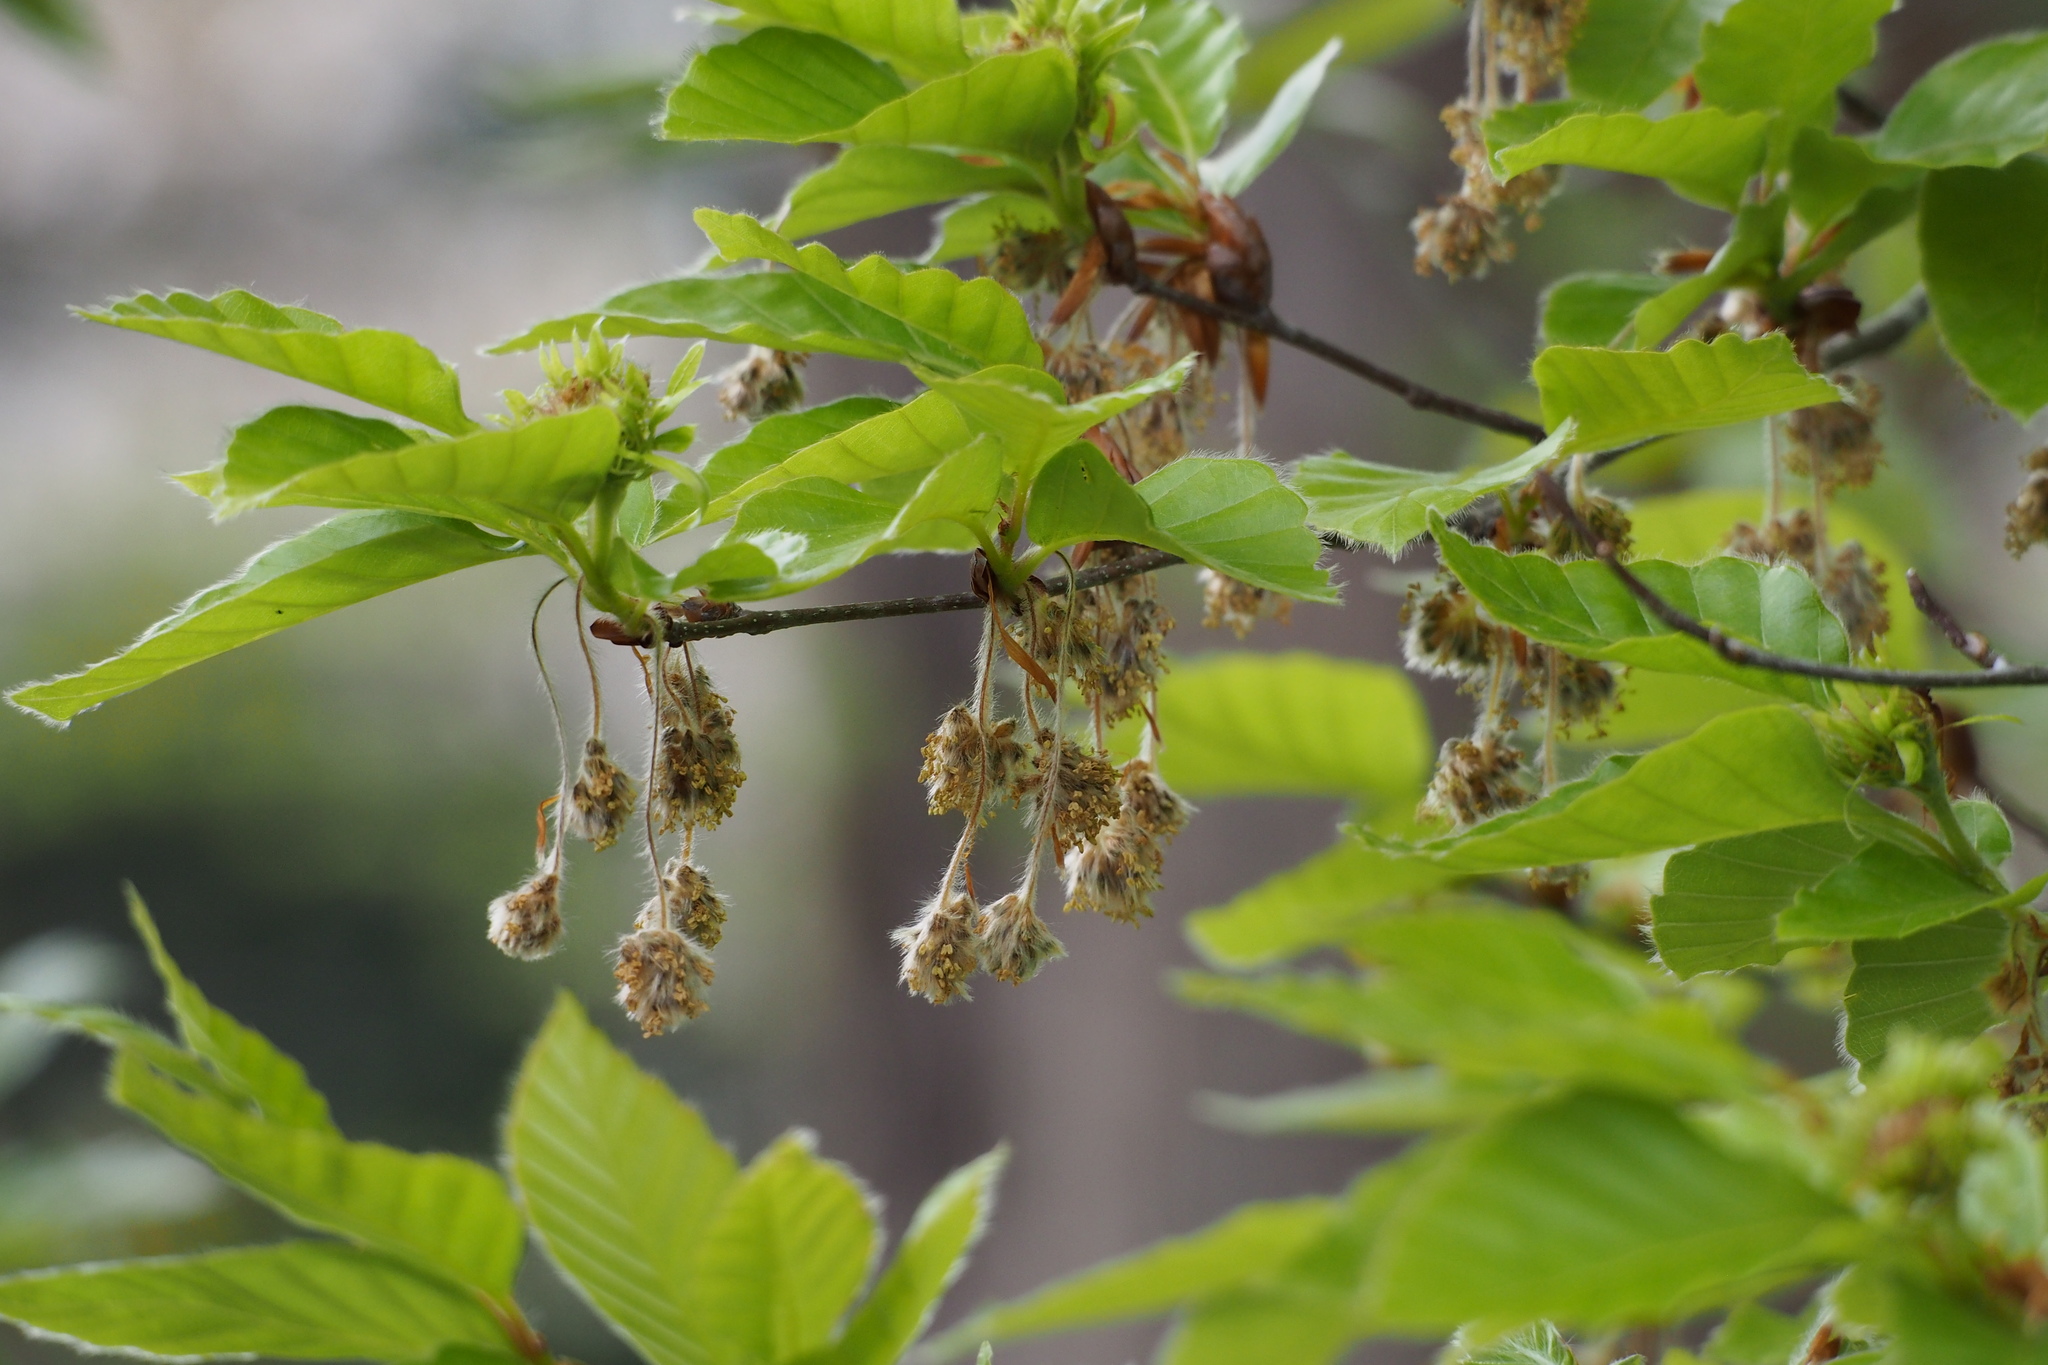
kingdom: Plantae
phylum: Tracheophyta
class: Magnoliopsida
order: Fagales
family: Fagaceae
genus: Fagus
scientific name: Fagus crenata
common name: Japanese beech
